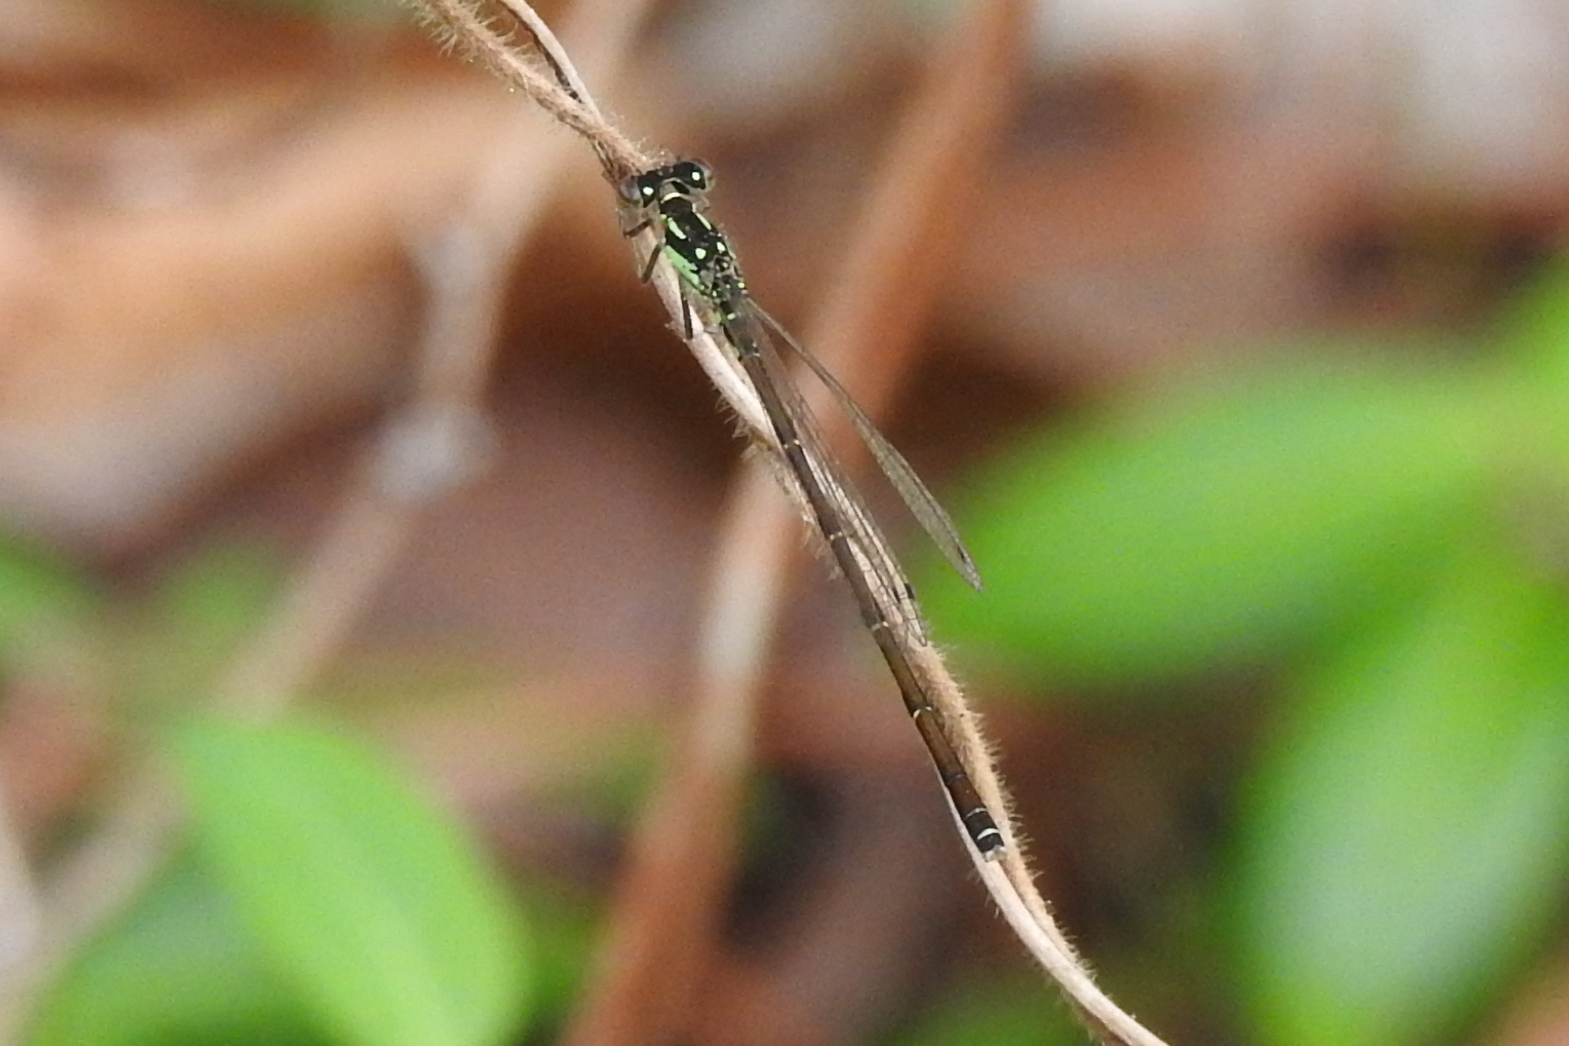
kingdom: Animalia
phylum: Arthropoda
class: Insecta
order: Odonata
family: Coenagrionidae
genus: Ischnura
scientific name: Ischnura posita
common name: Fragile forktail
